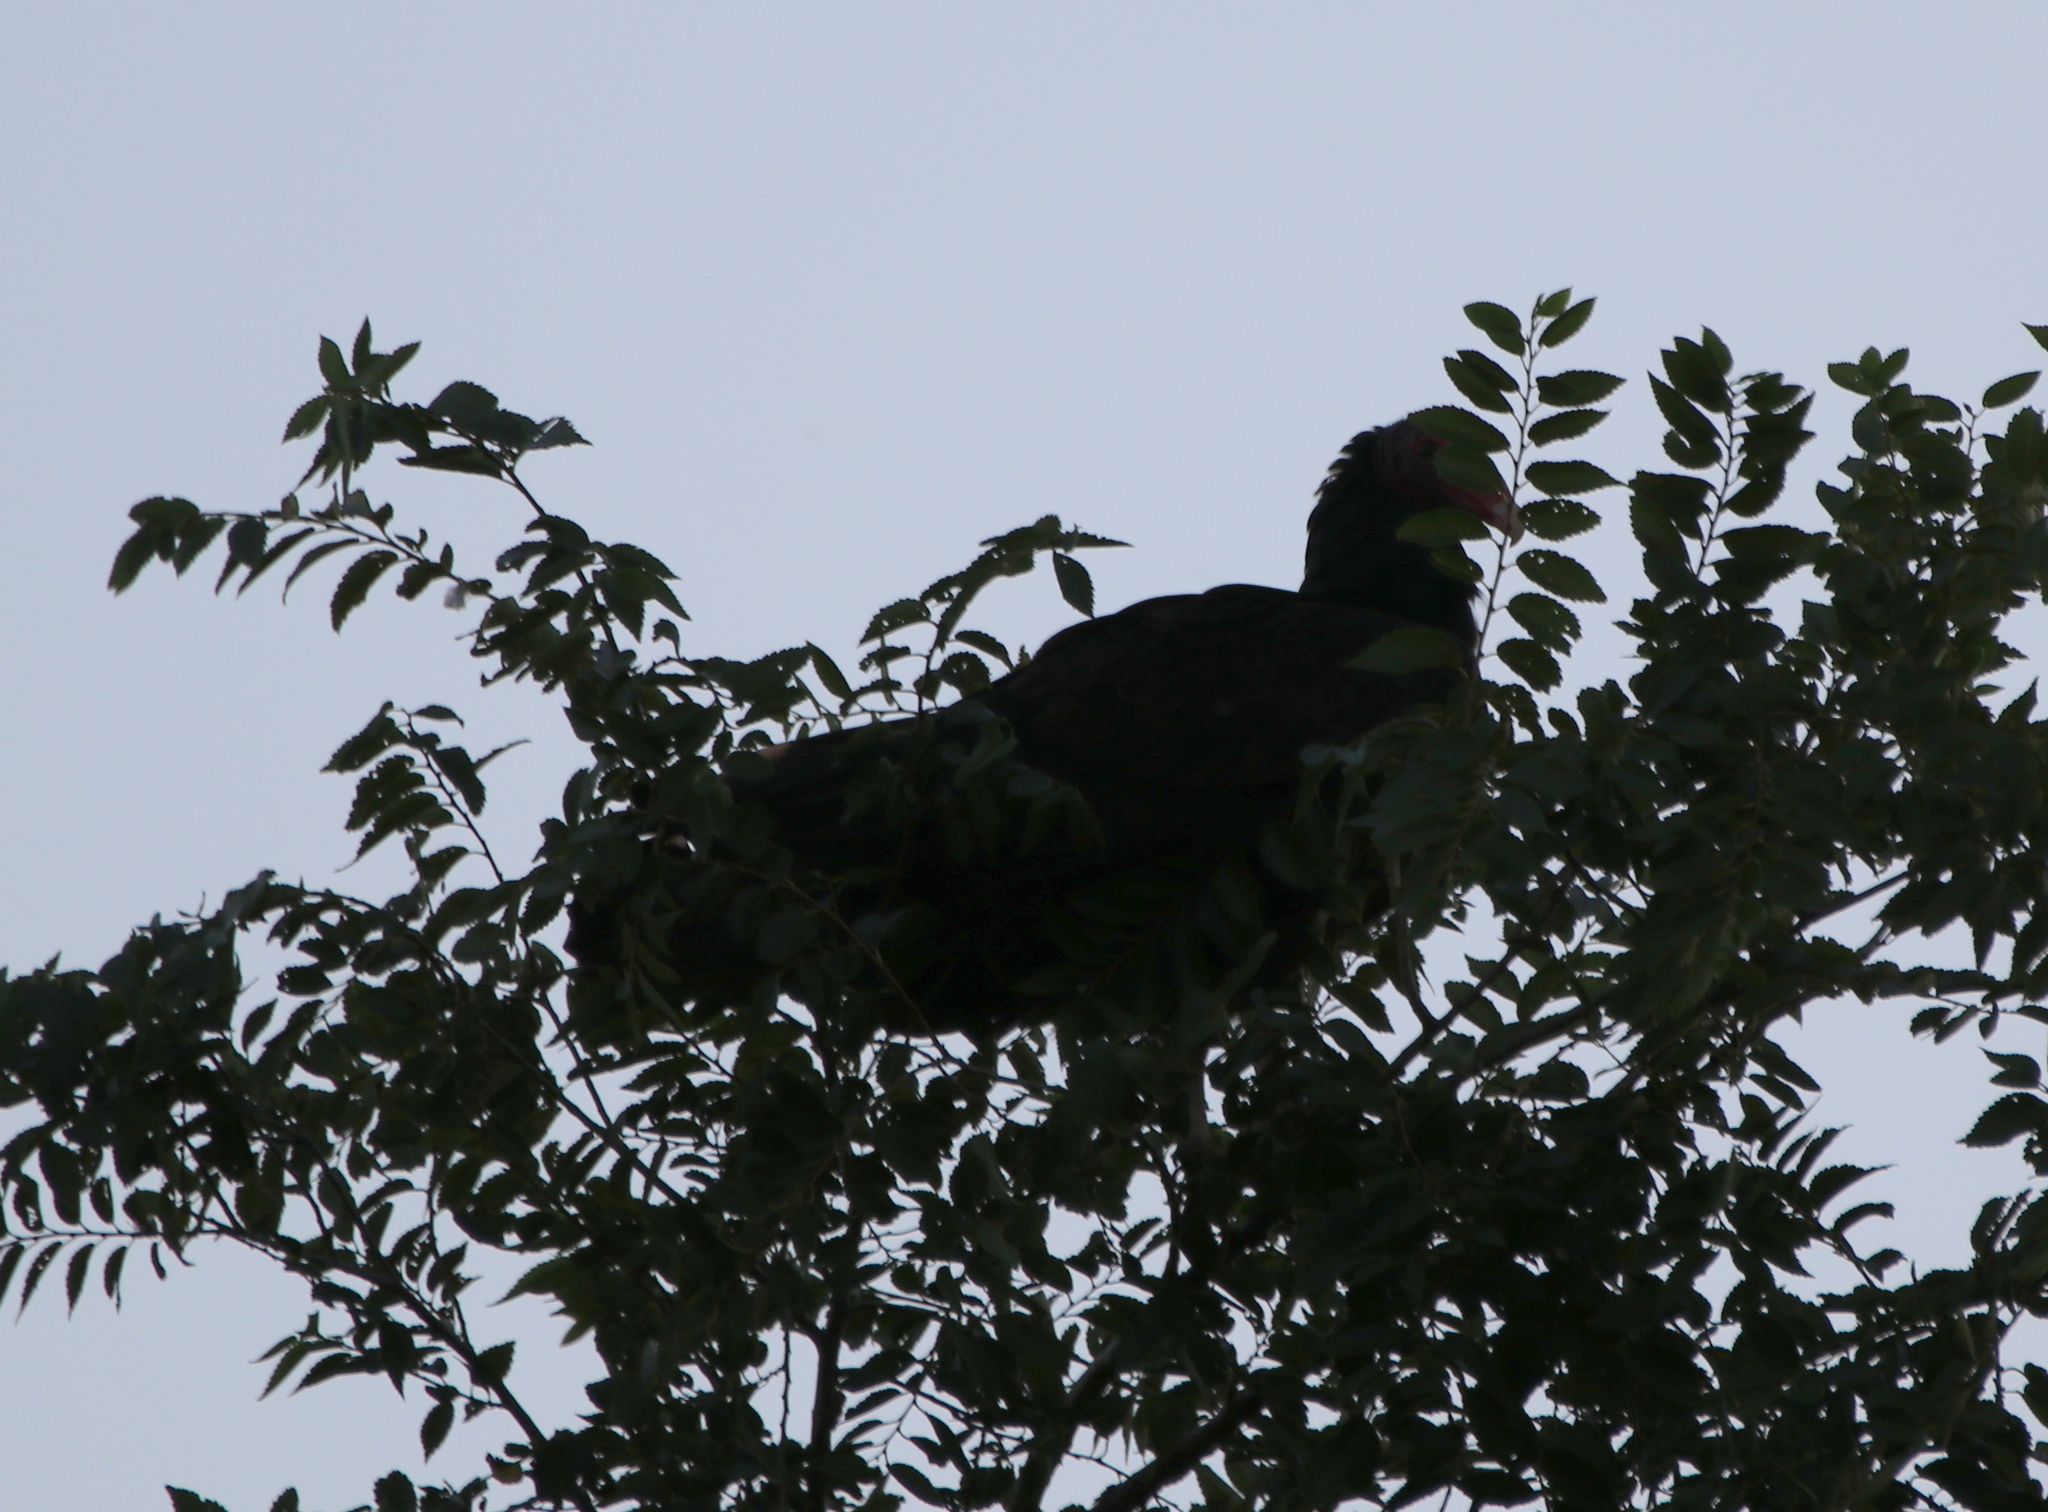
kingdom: Animalia
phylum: Chordata
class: Aves
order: Accipitriformes
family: Cathartidae
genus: Cathartes
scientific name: Cathartes aura
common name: Turkey vulture
